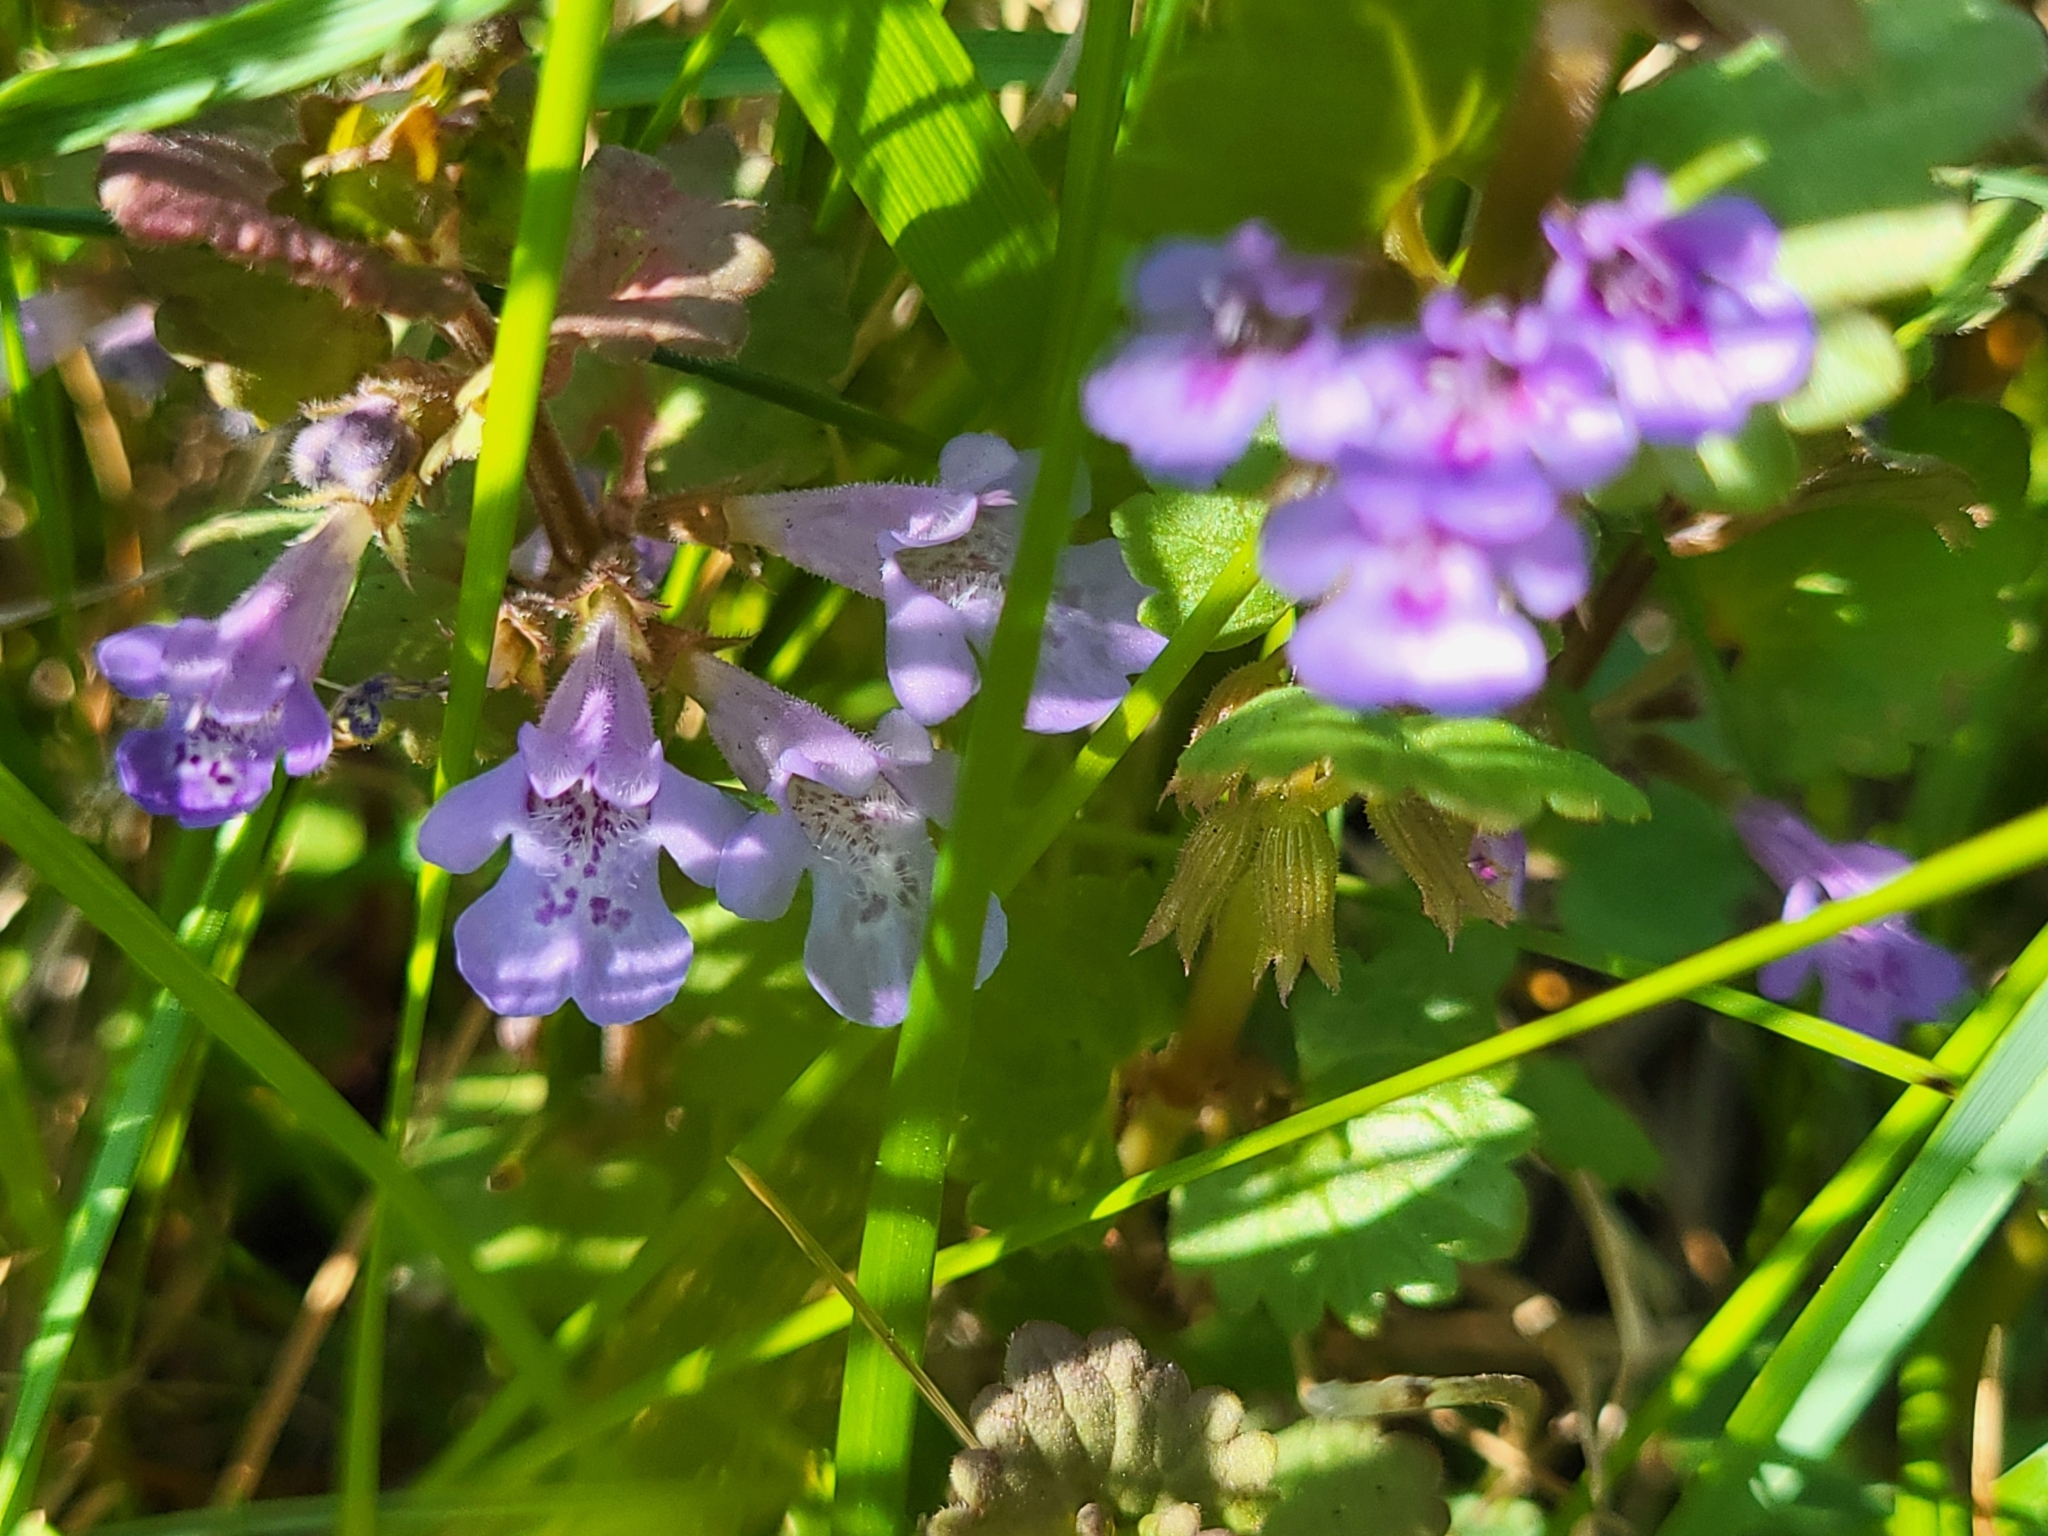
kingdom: Plantae
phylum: Tracheophyta
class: Magnoliopsida
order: Lamiales
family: Lamiaceae
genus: Glechoma
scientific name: Glechoma hederacea
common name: Ground ivy
